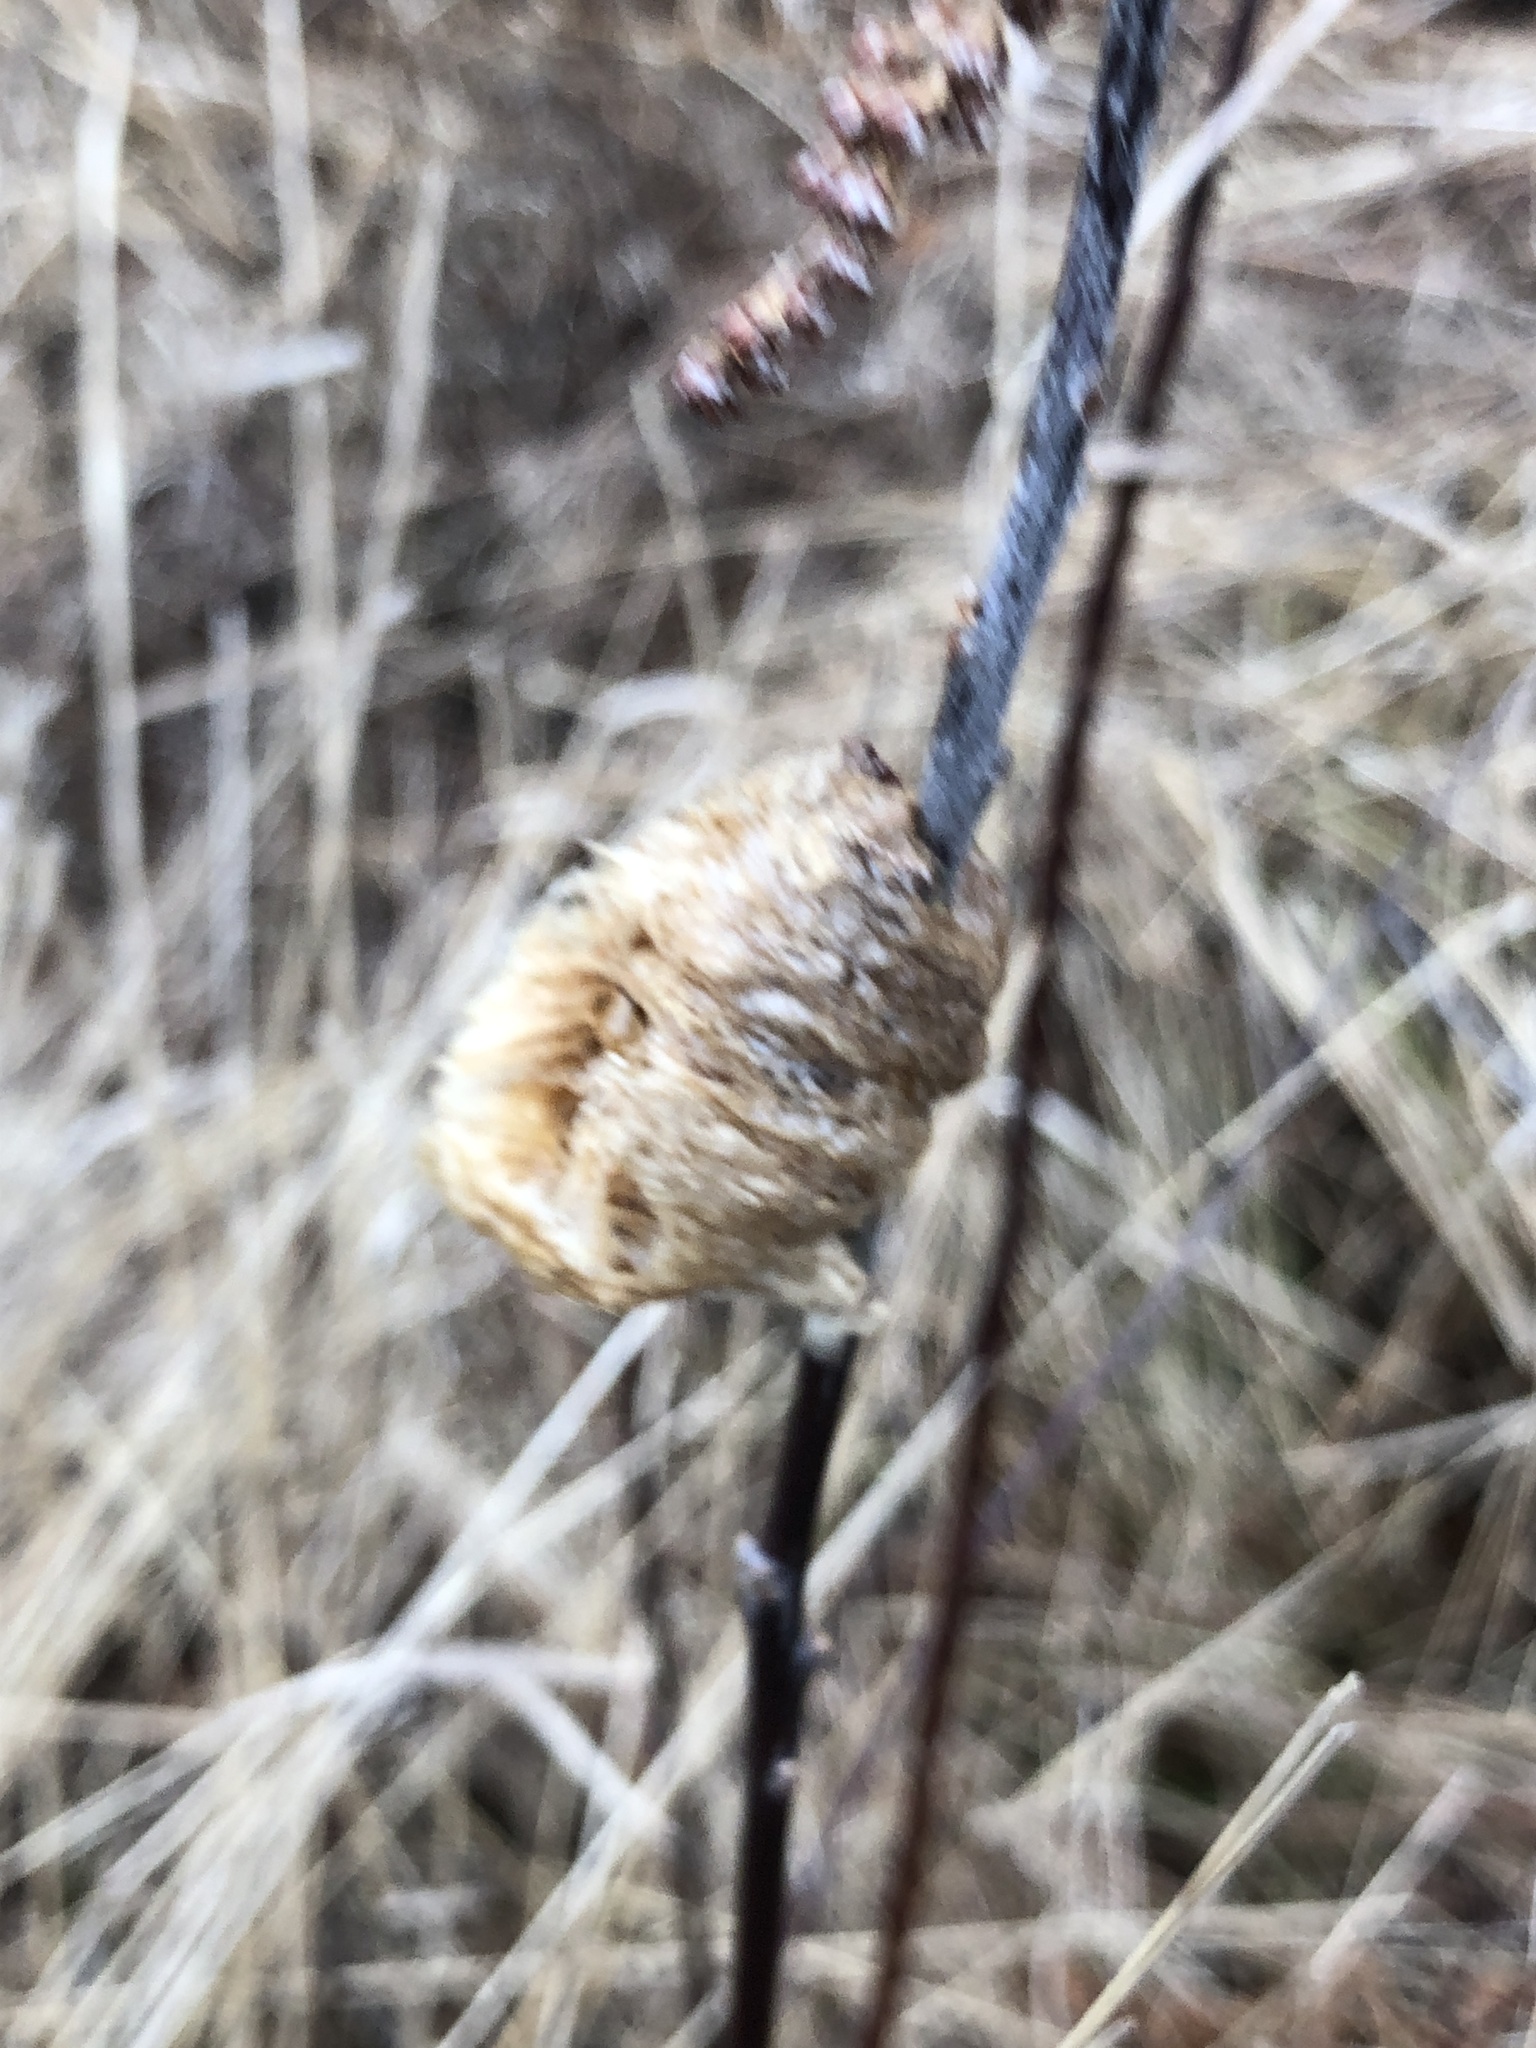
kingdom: Animalia
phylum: Arthropoda
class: Insecta
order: Mantodea
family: Mantidae
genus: Tenodera
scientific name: Tenodera sinensis
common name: Chinese mantis
